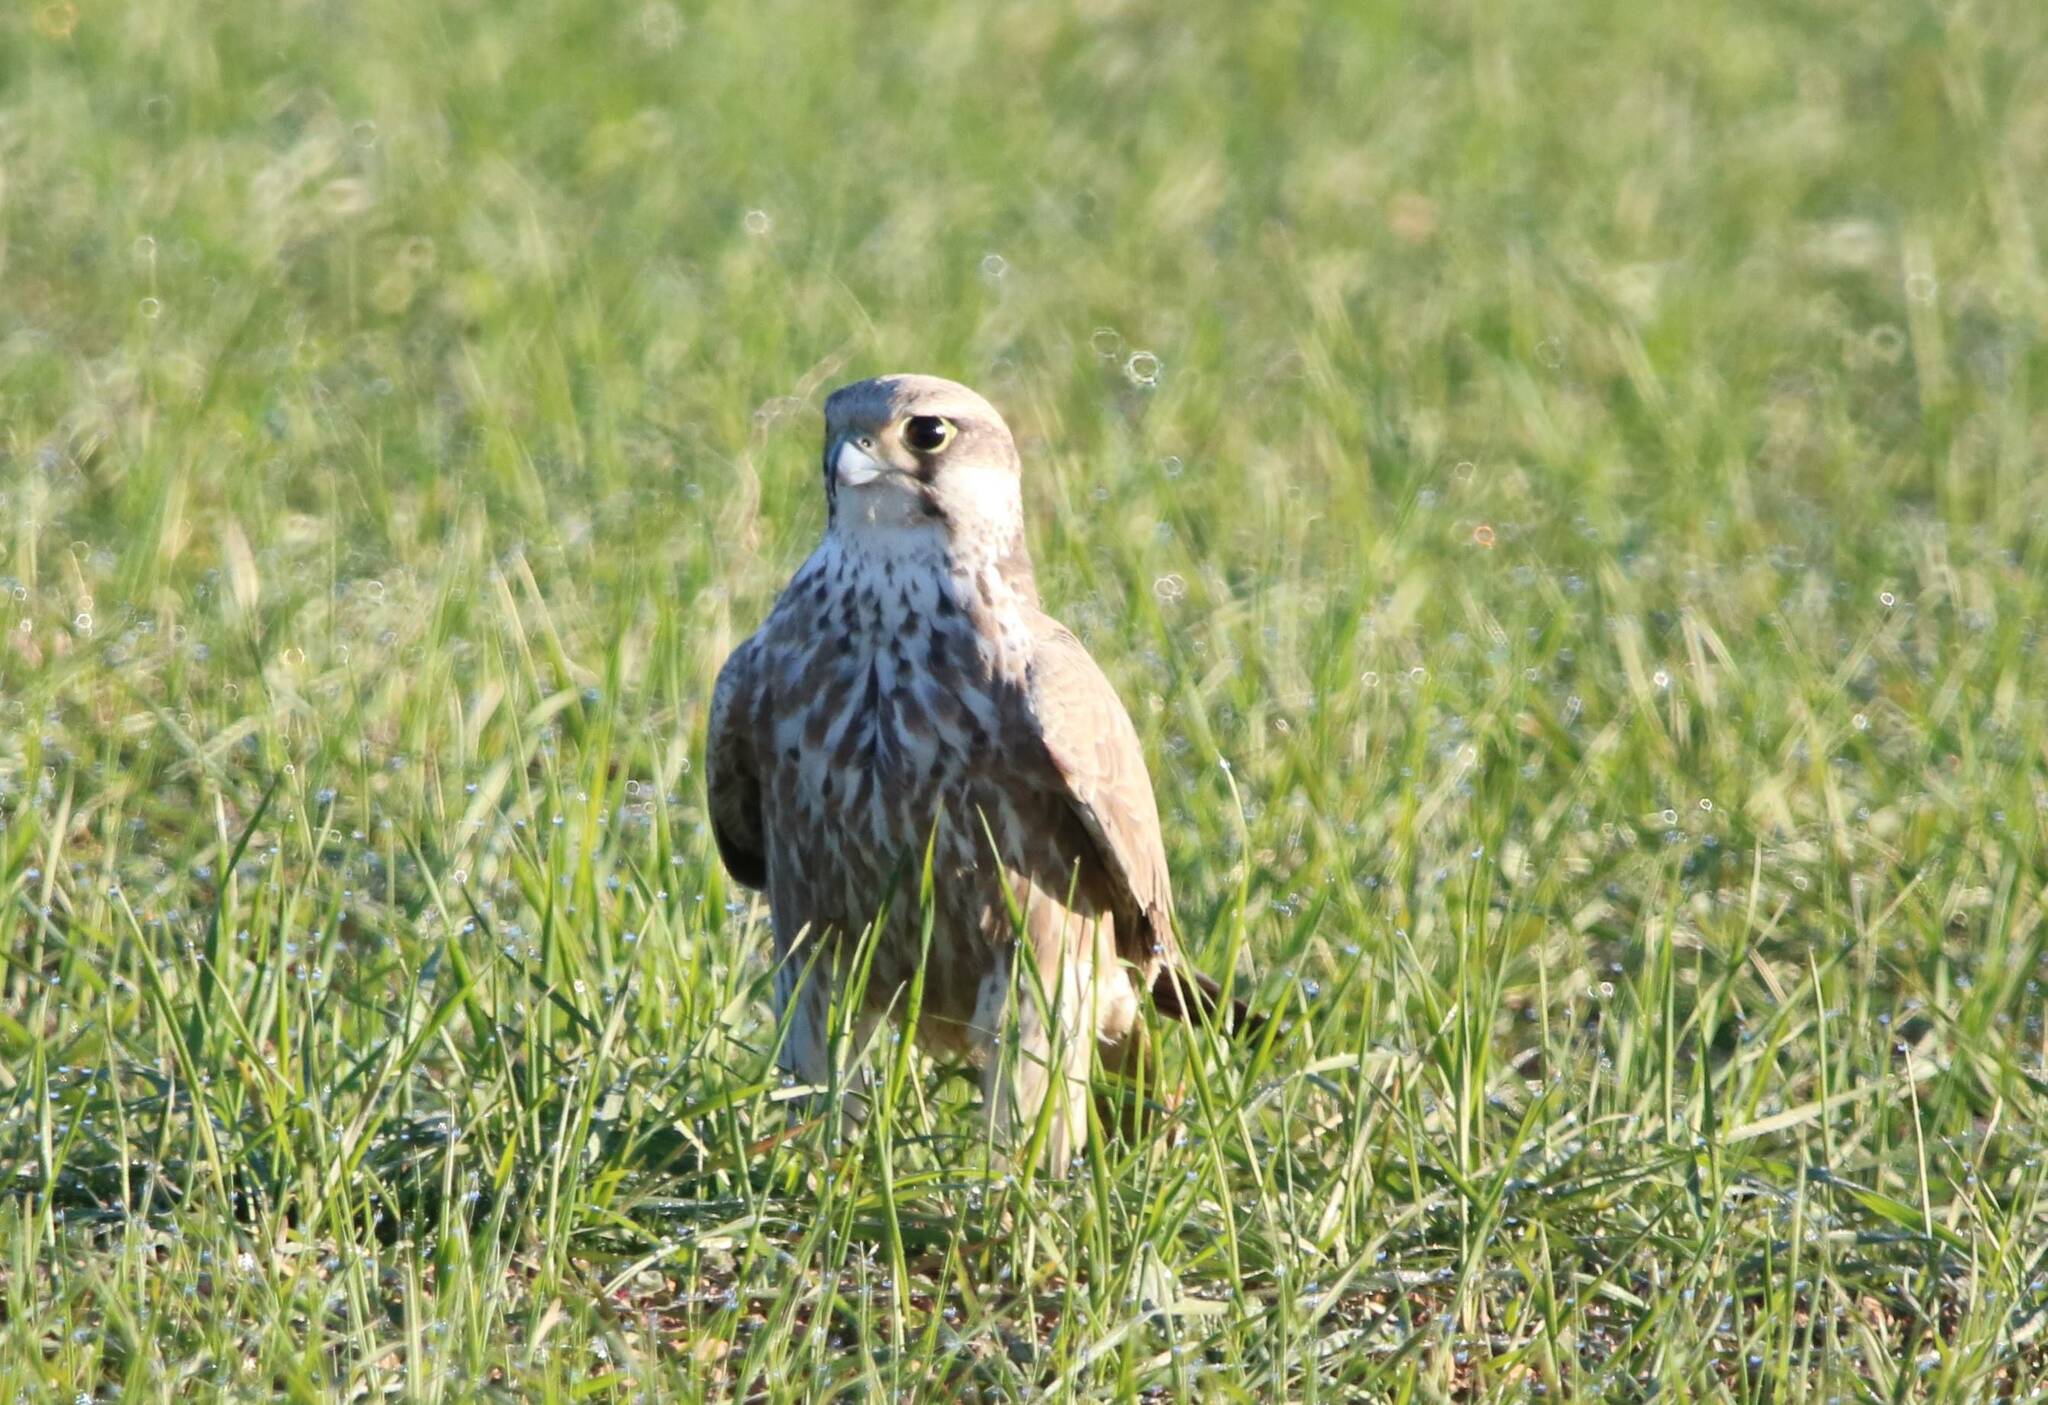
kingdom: Animalia
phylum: Chordata
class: Aves
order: Falconiformes
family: Falconidae
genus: Falco
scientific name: Falco biarmicus
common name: Lanner falcon
